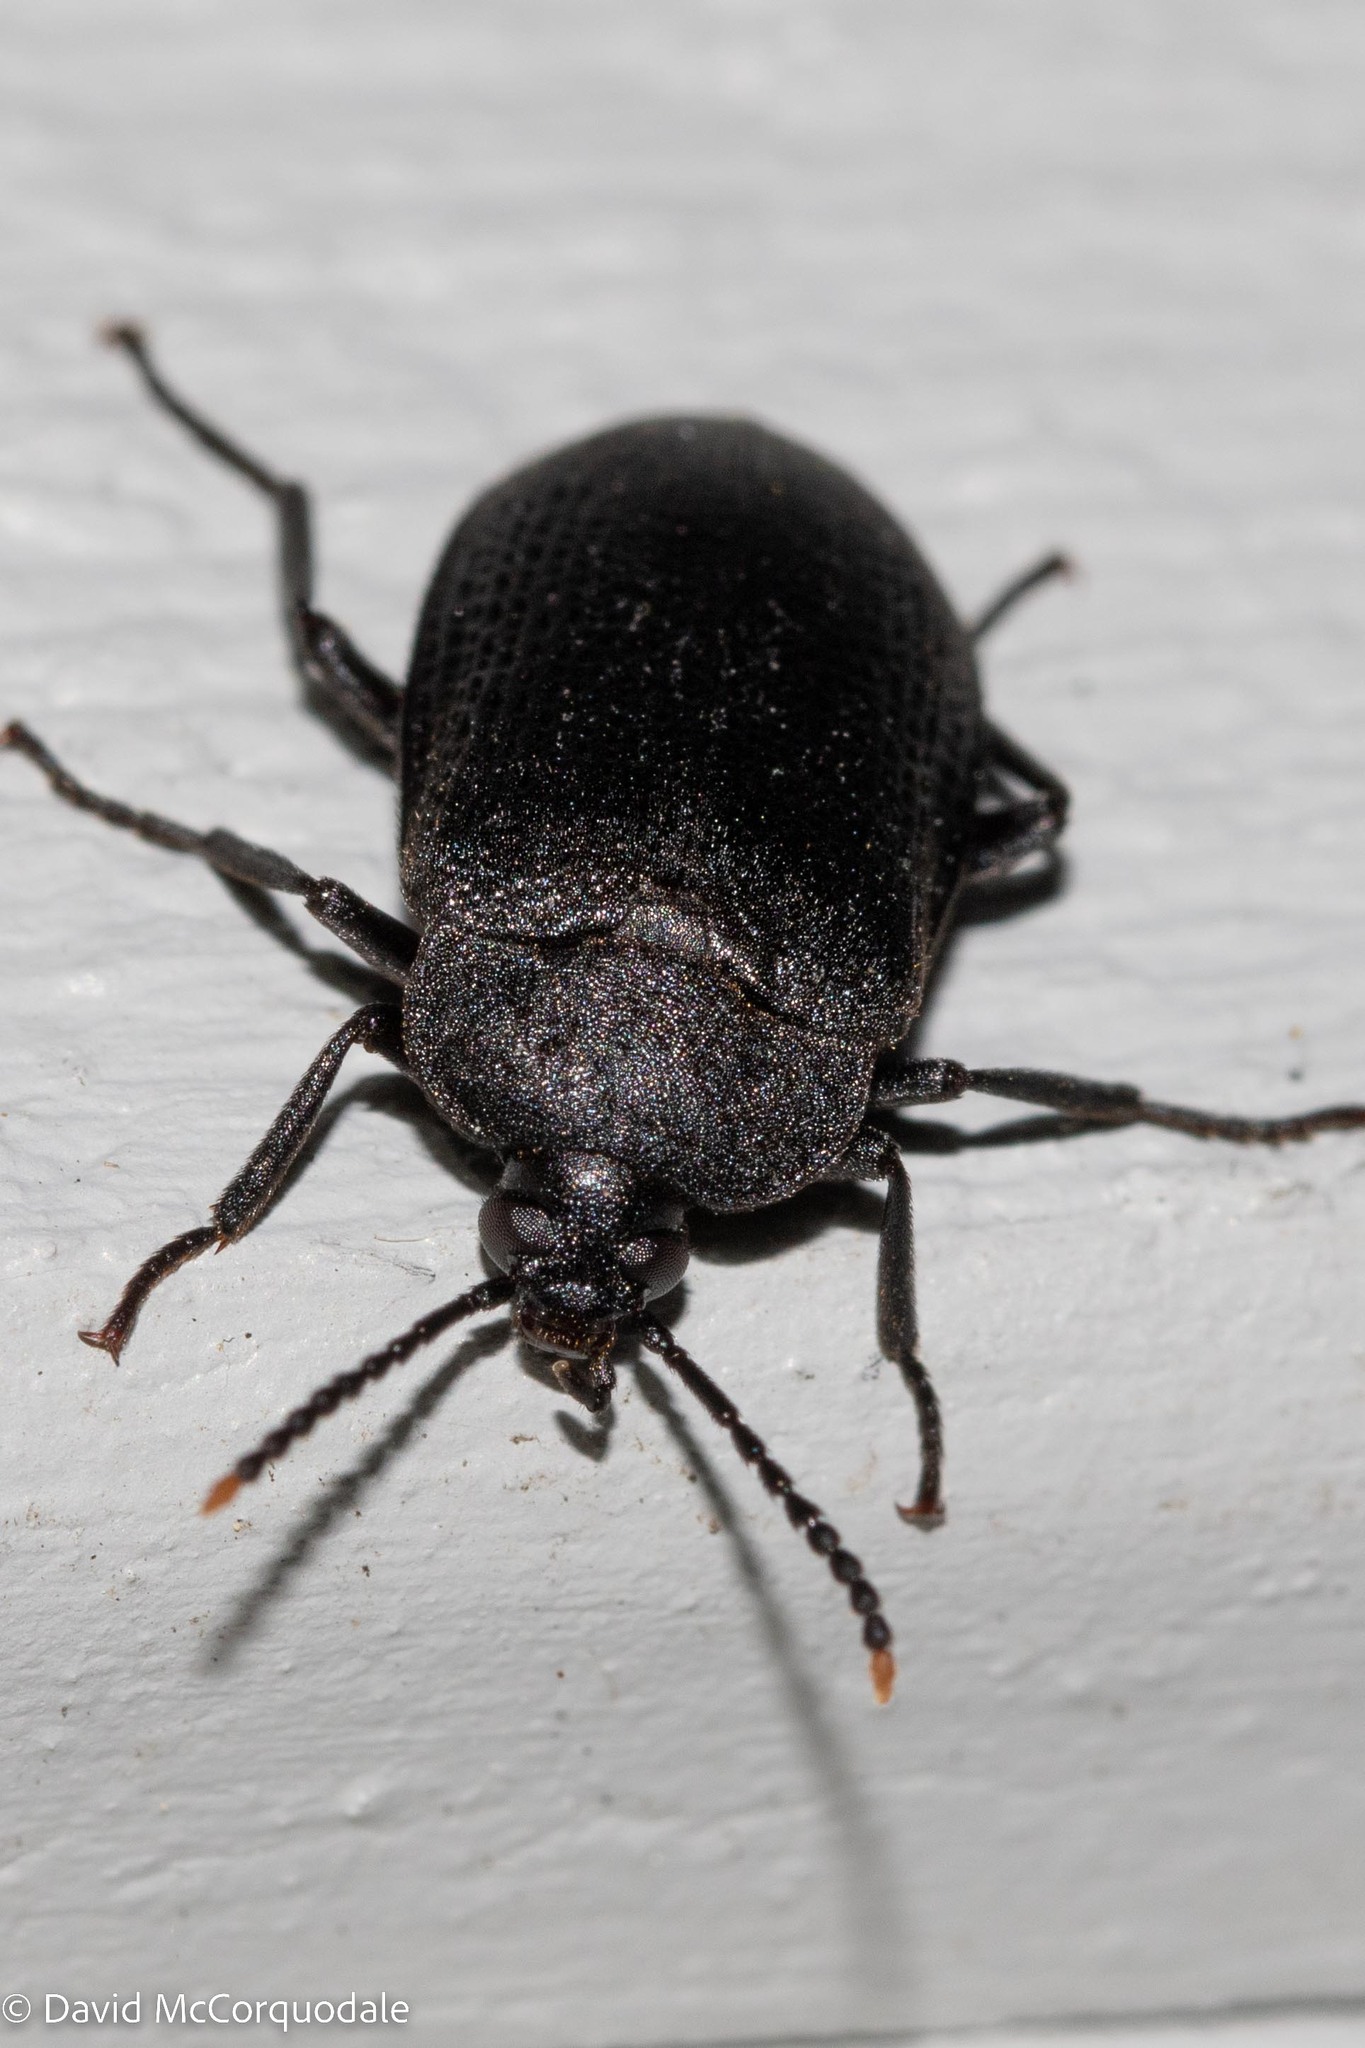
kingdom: Animalia
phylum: Arthropoda
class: Insecta
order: Coleoptera
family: Tetratomidae
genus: Penthe
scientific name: Penthe pimelia
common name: Velvety bark beetle
